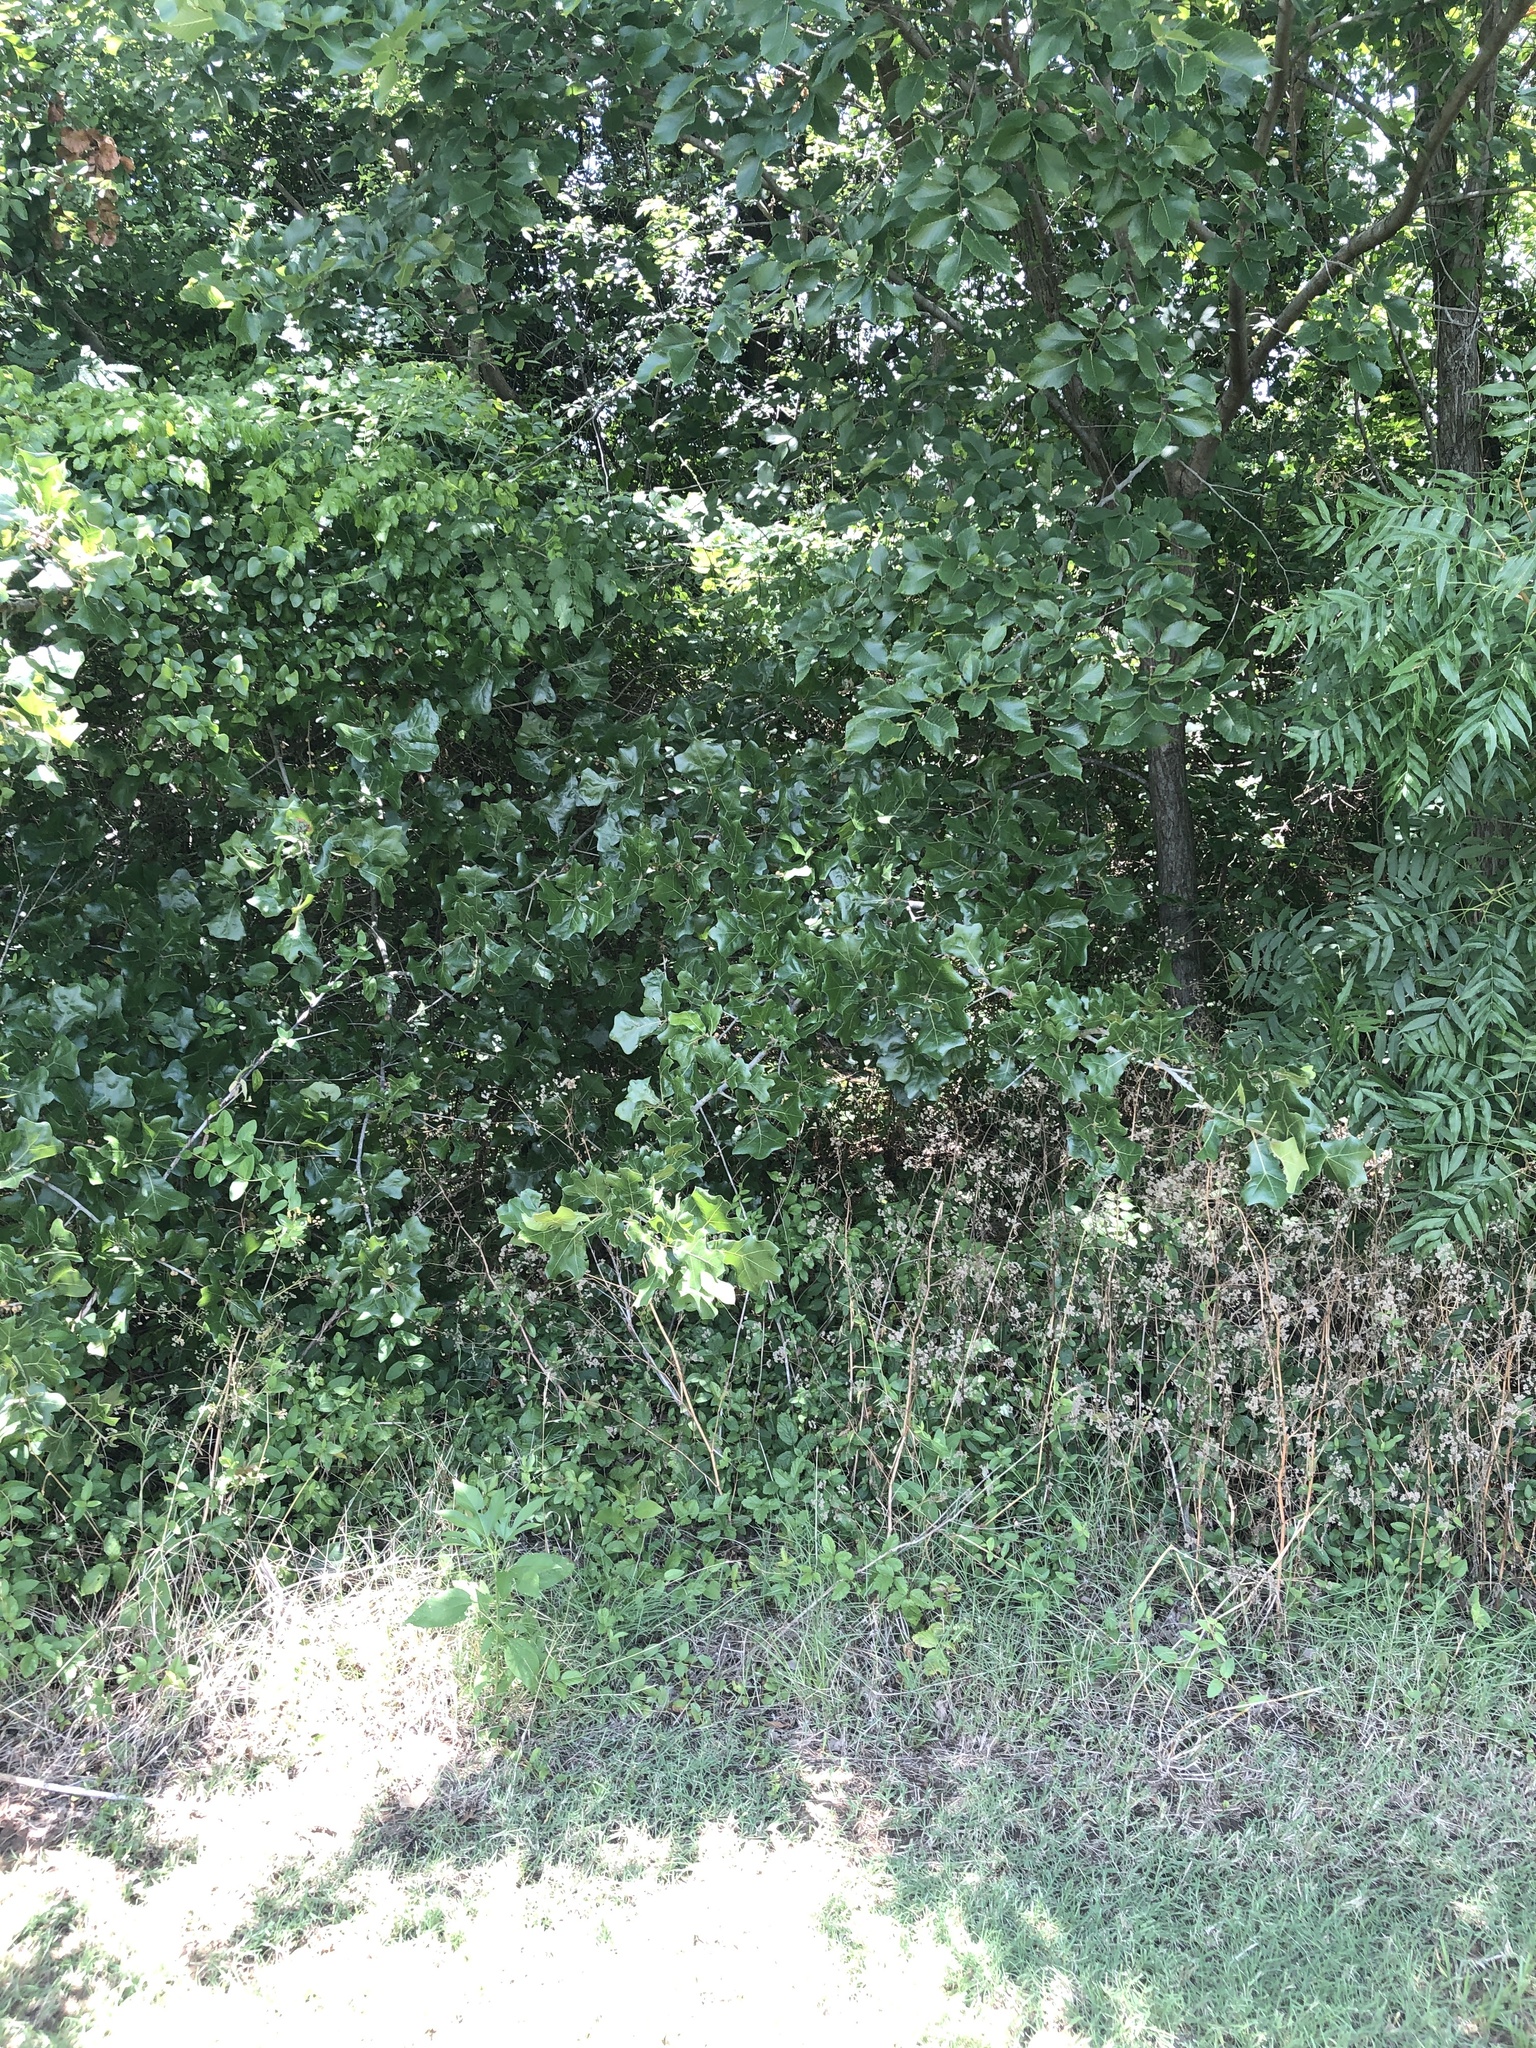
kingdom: Plantae
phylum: Tracheophyta
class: Magnoliopsida
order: Fagales
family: Fagaceae
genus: Quercus
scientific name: Quercus marilandica
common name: Blackjack oak
